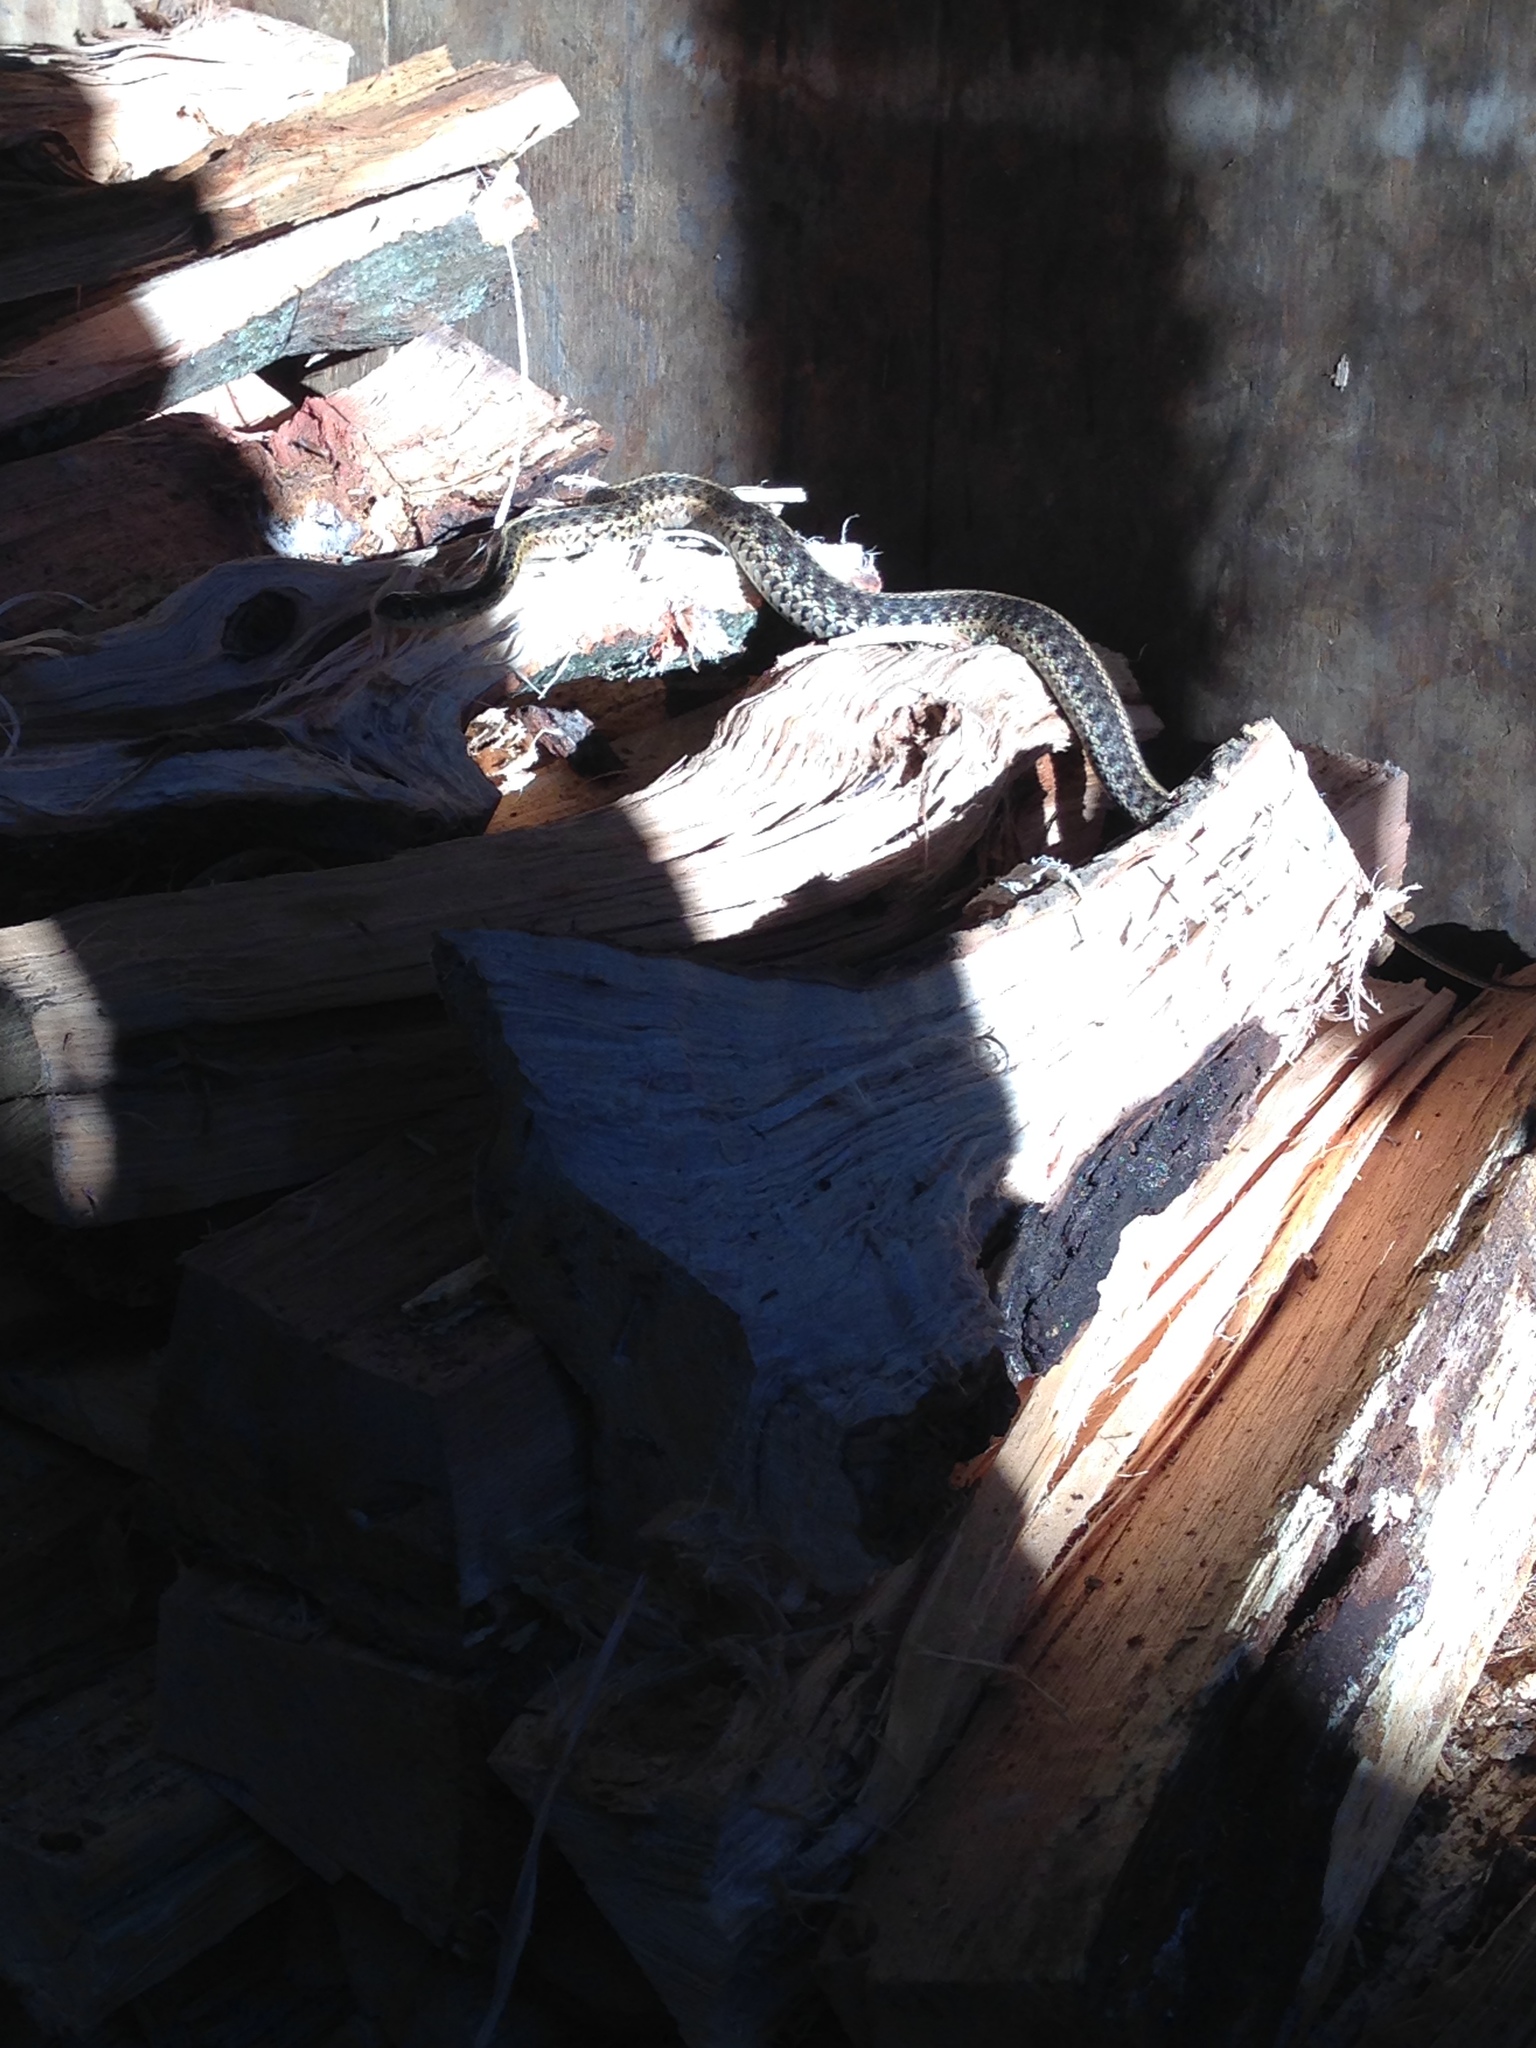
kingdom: Animalia
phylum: Chordata
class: Squamata
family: Colubridae
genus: Thamnophis
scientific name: Thamnophis sirtalis
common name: Common garter snake
